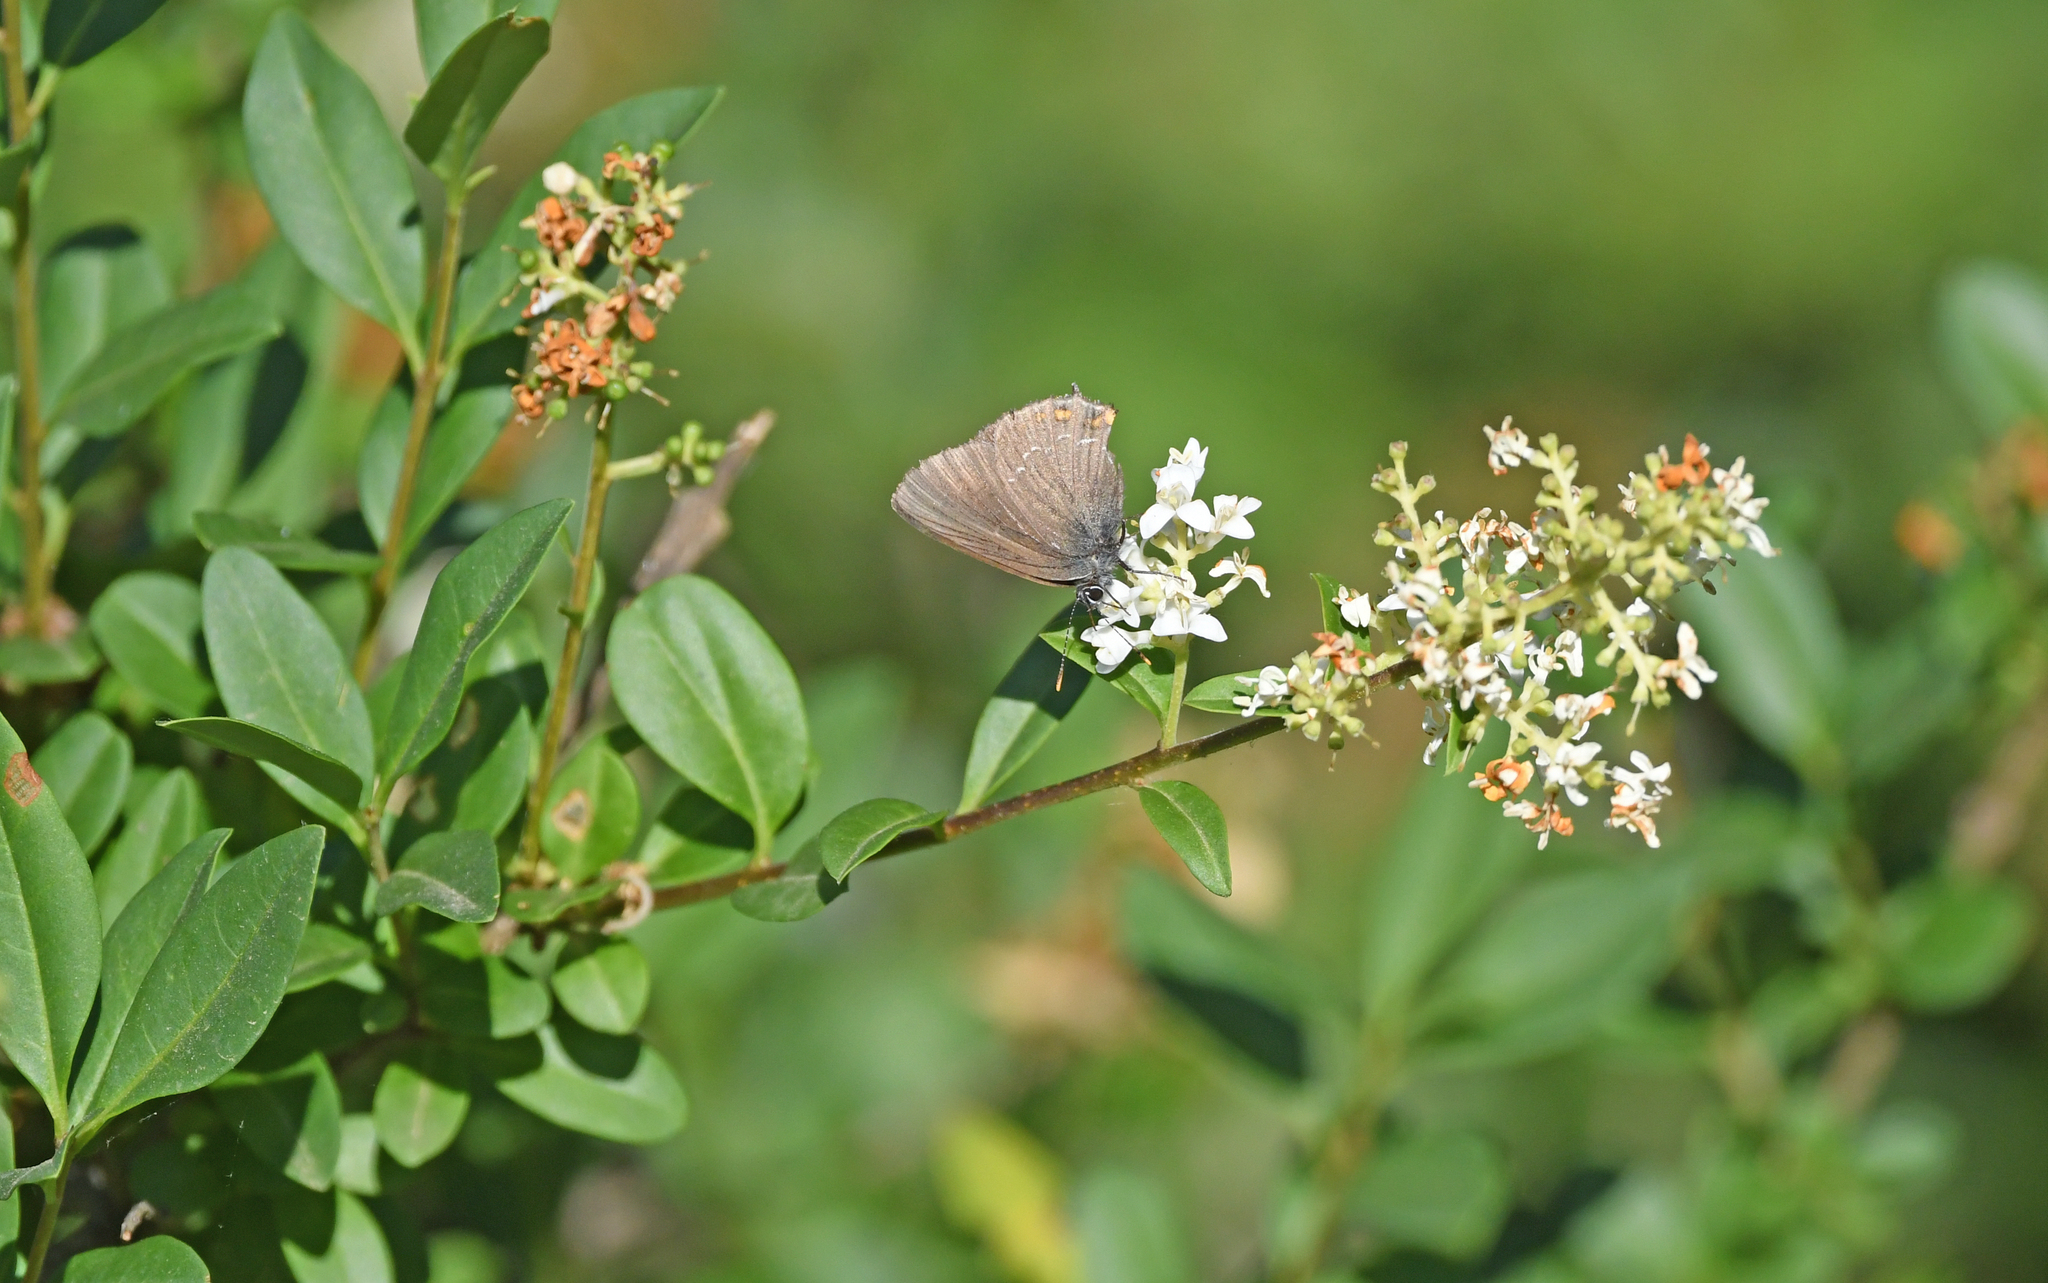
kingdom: Animalia
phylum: Arthropoda
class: Insecta
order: Lepidoptera
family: Lycaenidae
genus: Nordmannia
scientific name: Nordmannia ilicis
